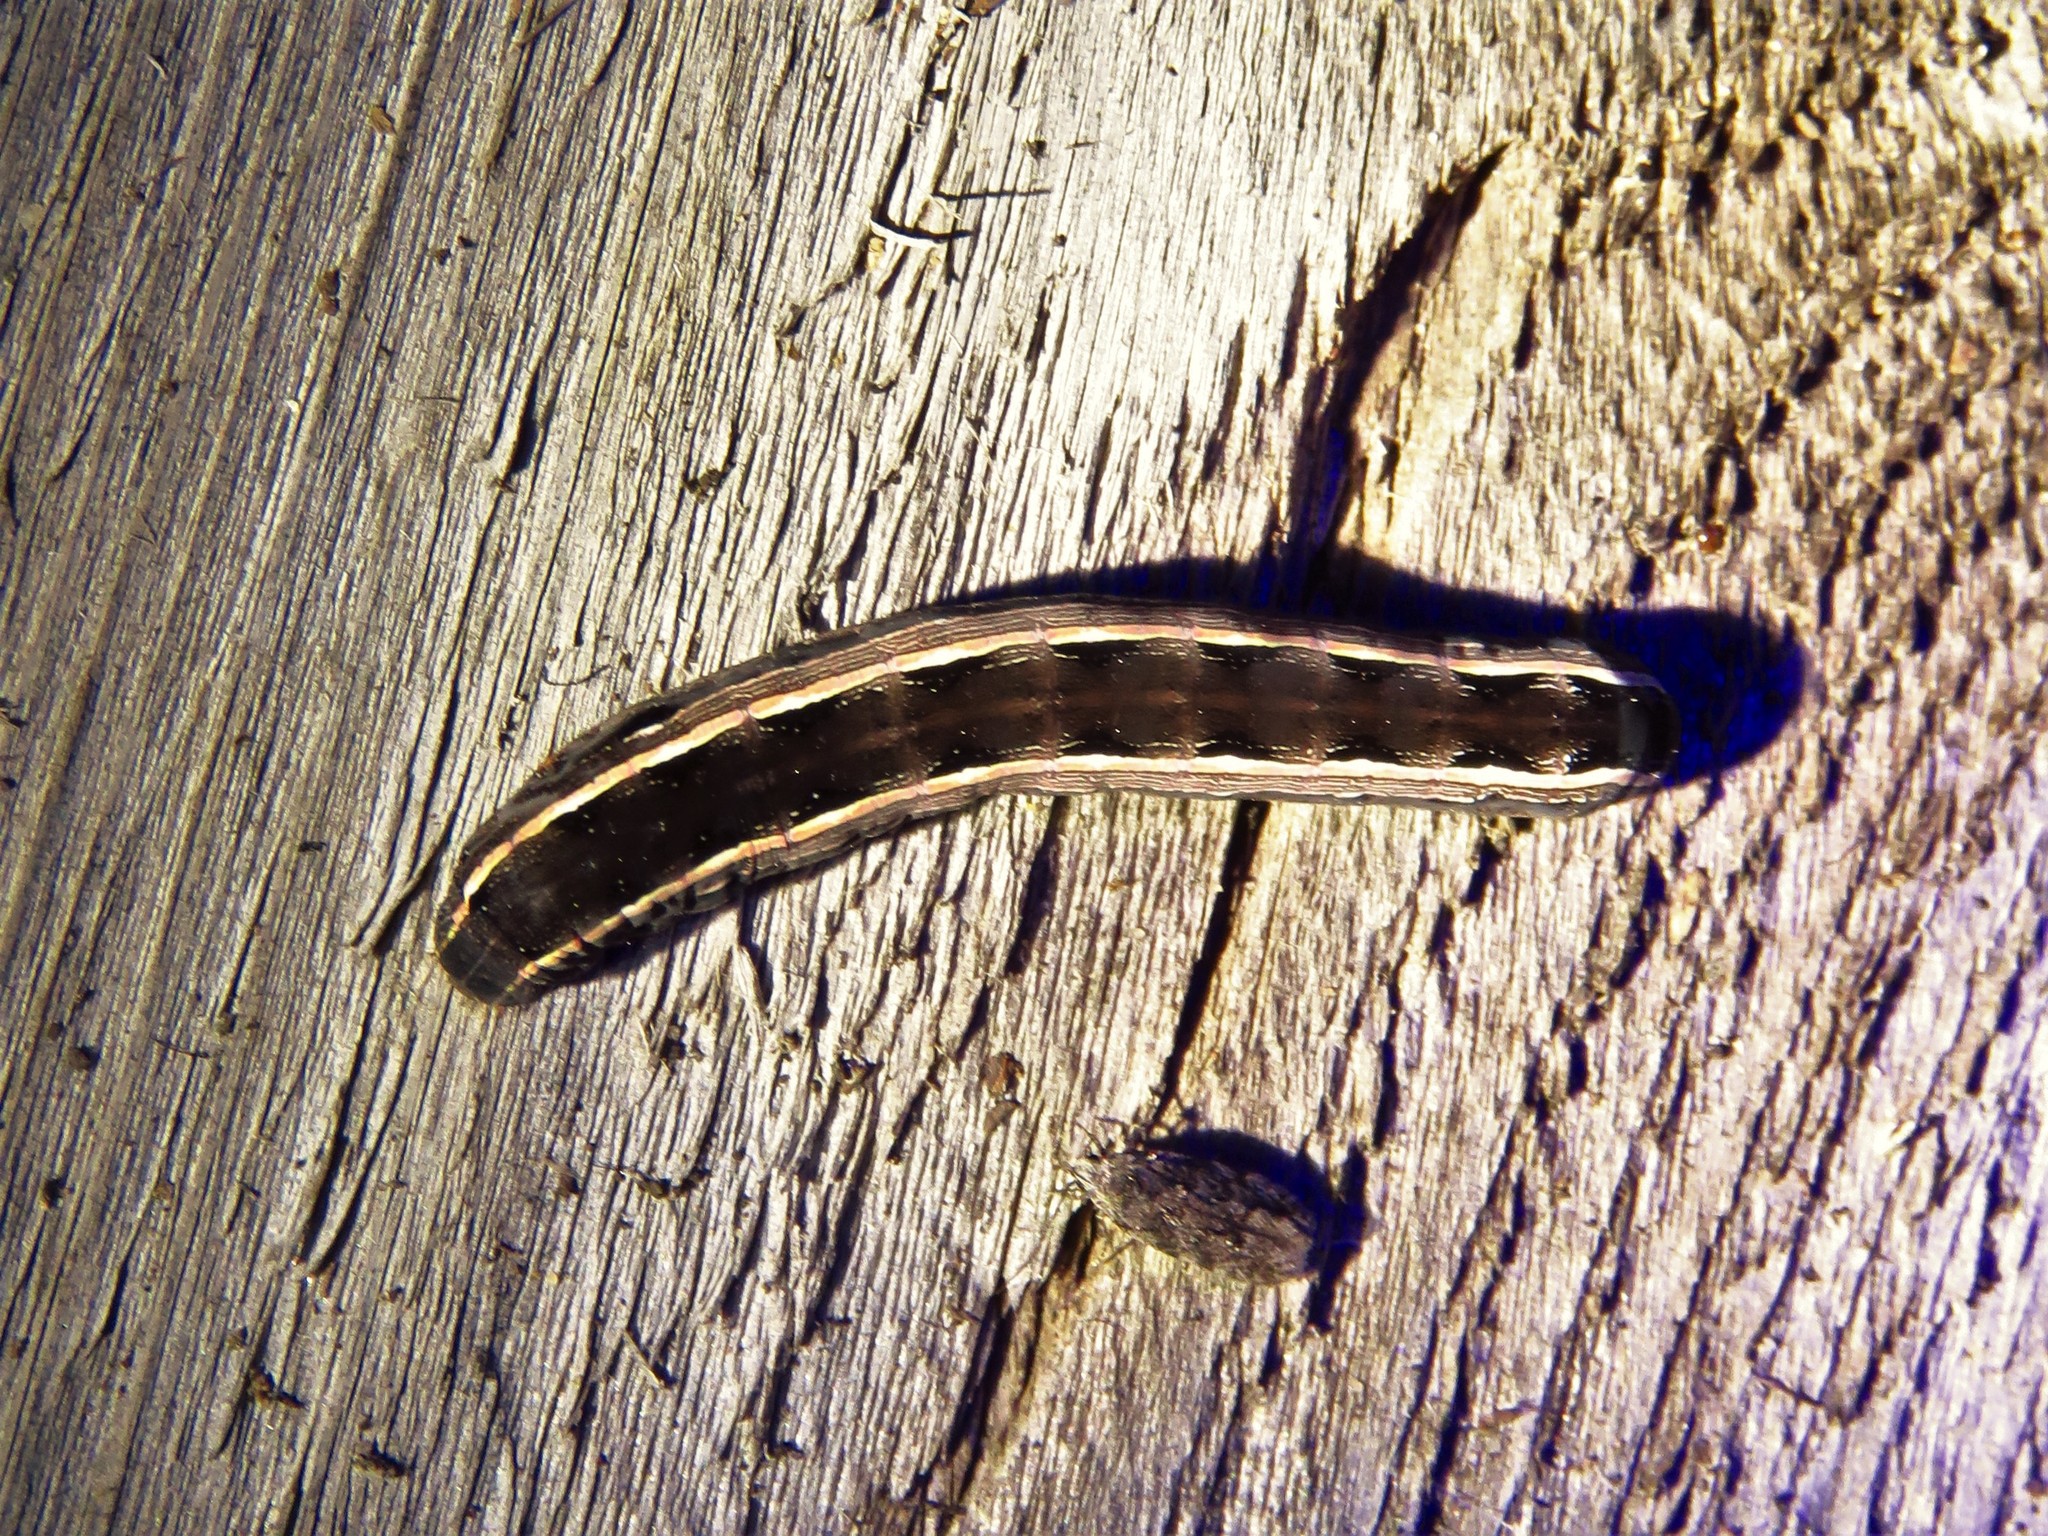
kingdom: Animalia
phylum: Arthropoda
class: Insecta
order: Lepidoptera
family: Noctuidae
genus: Spodoptera
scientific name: Spodoptera ornithogalli
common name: Yellow-striped armyworm
